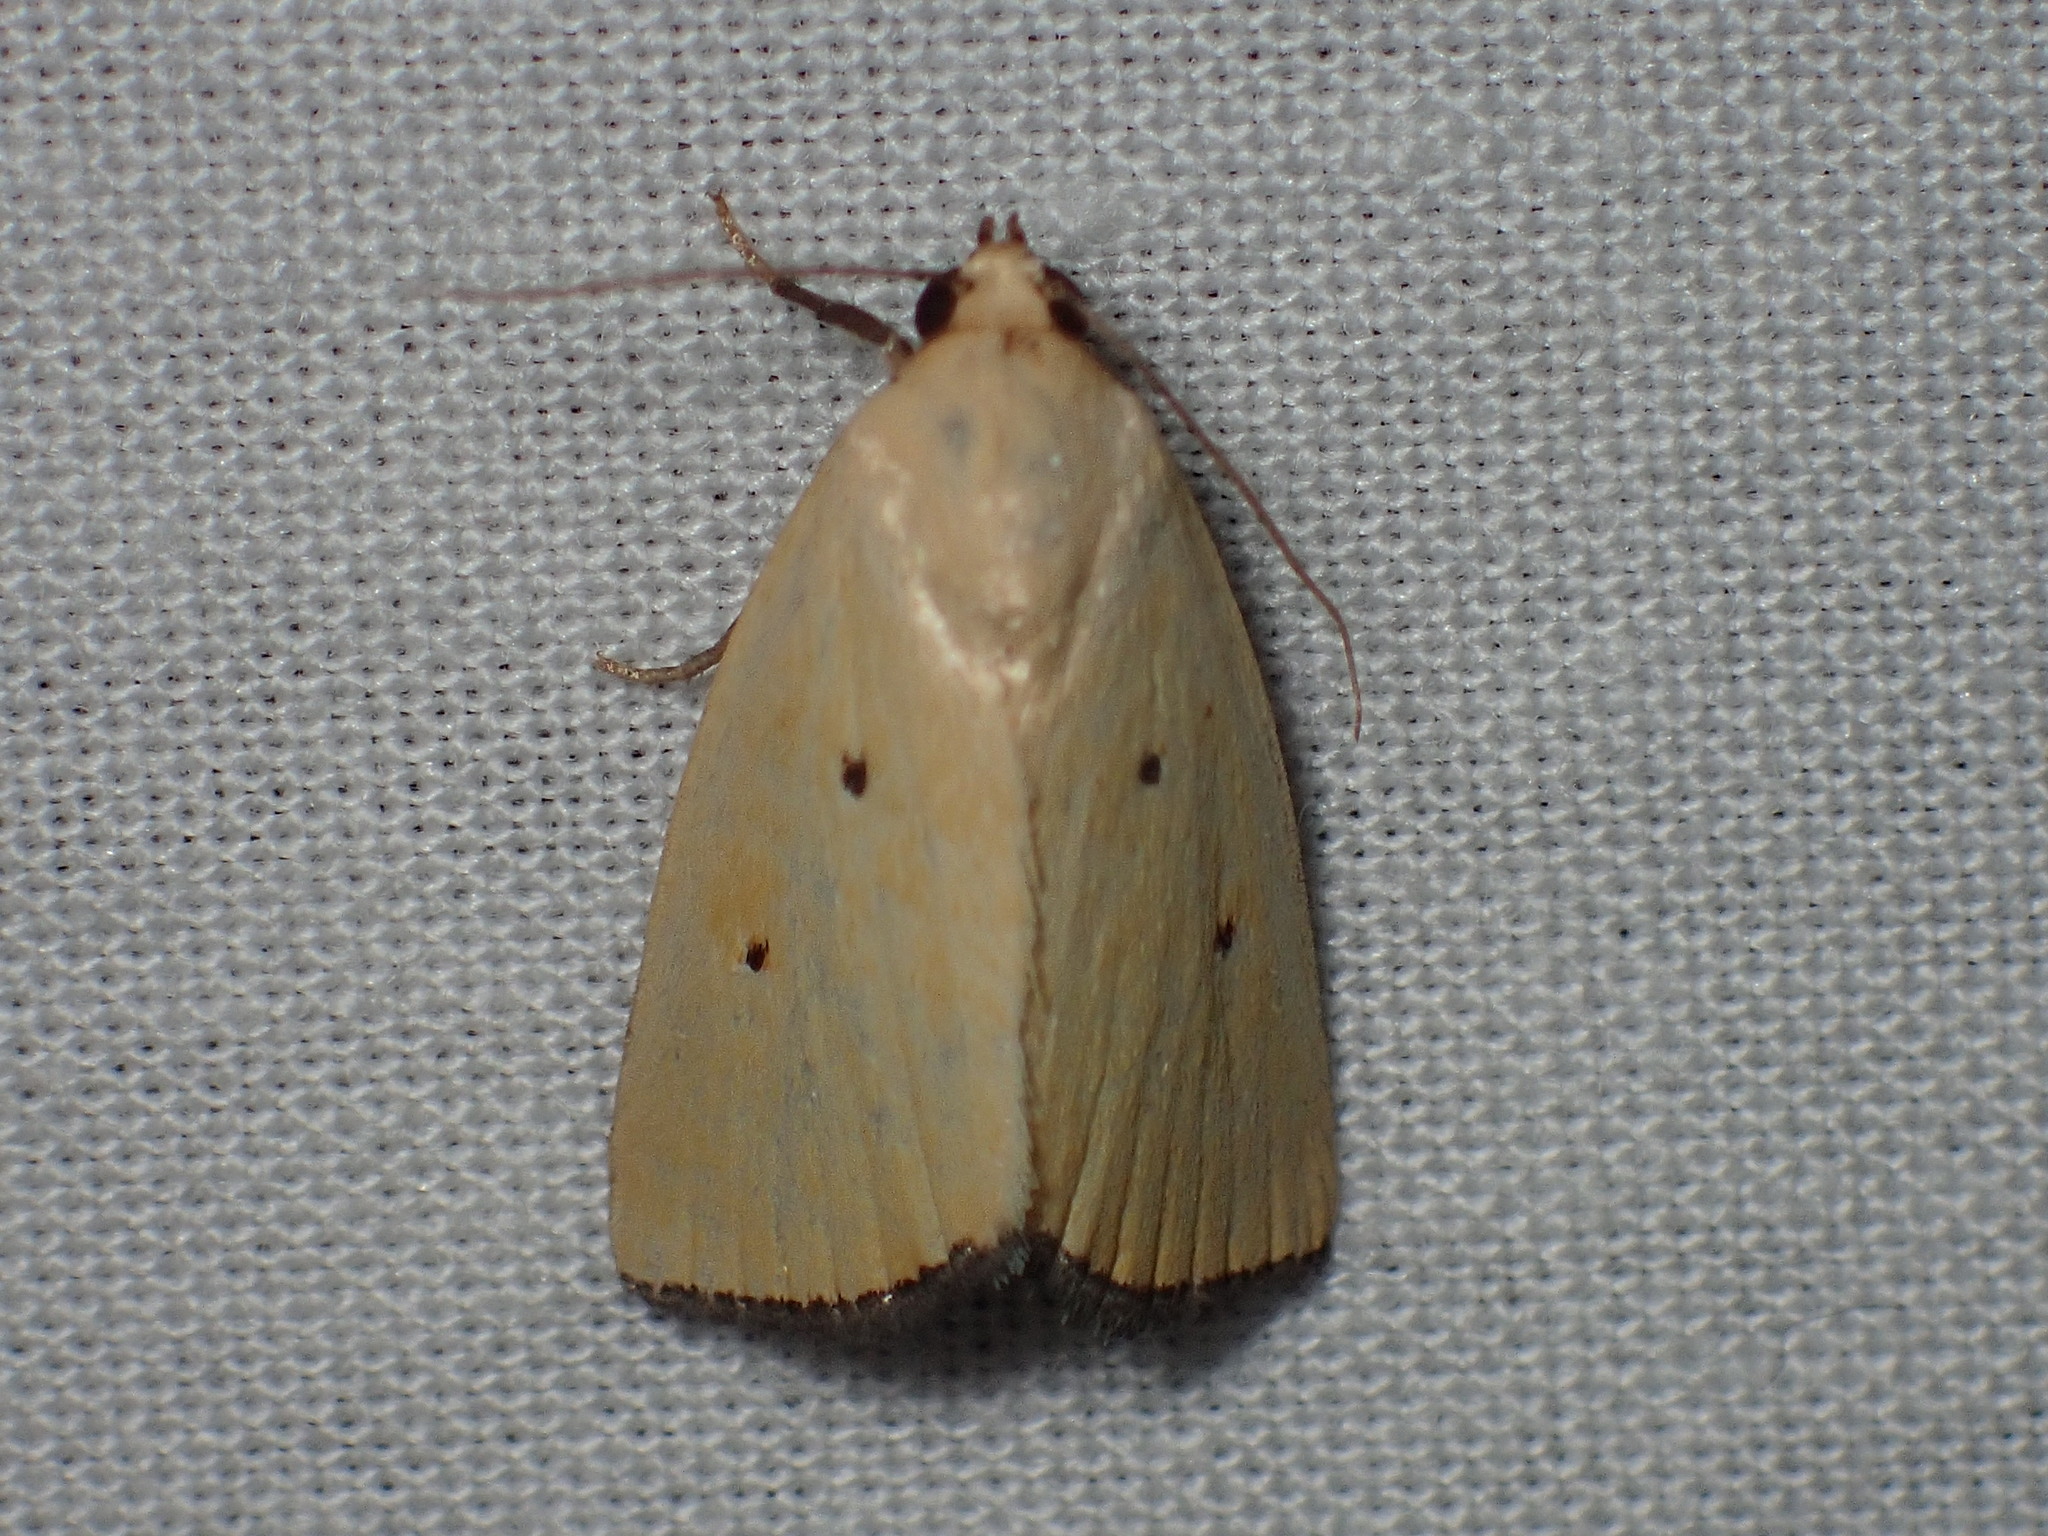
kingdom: Animalia
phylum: Arthropoda
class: Insecta
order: Lepidoptera
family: Noctuidae
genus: Marimatha
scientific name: Marimatha nigrofimbria
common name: Black-bordered lemon moth
